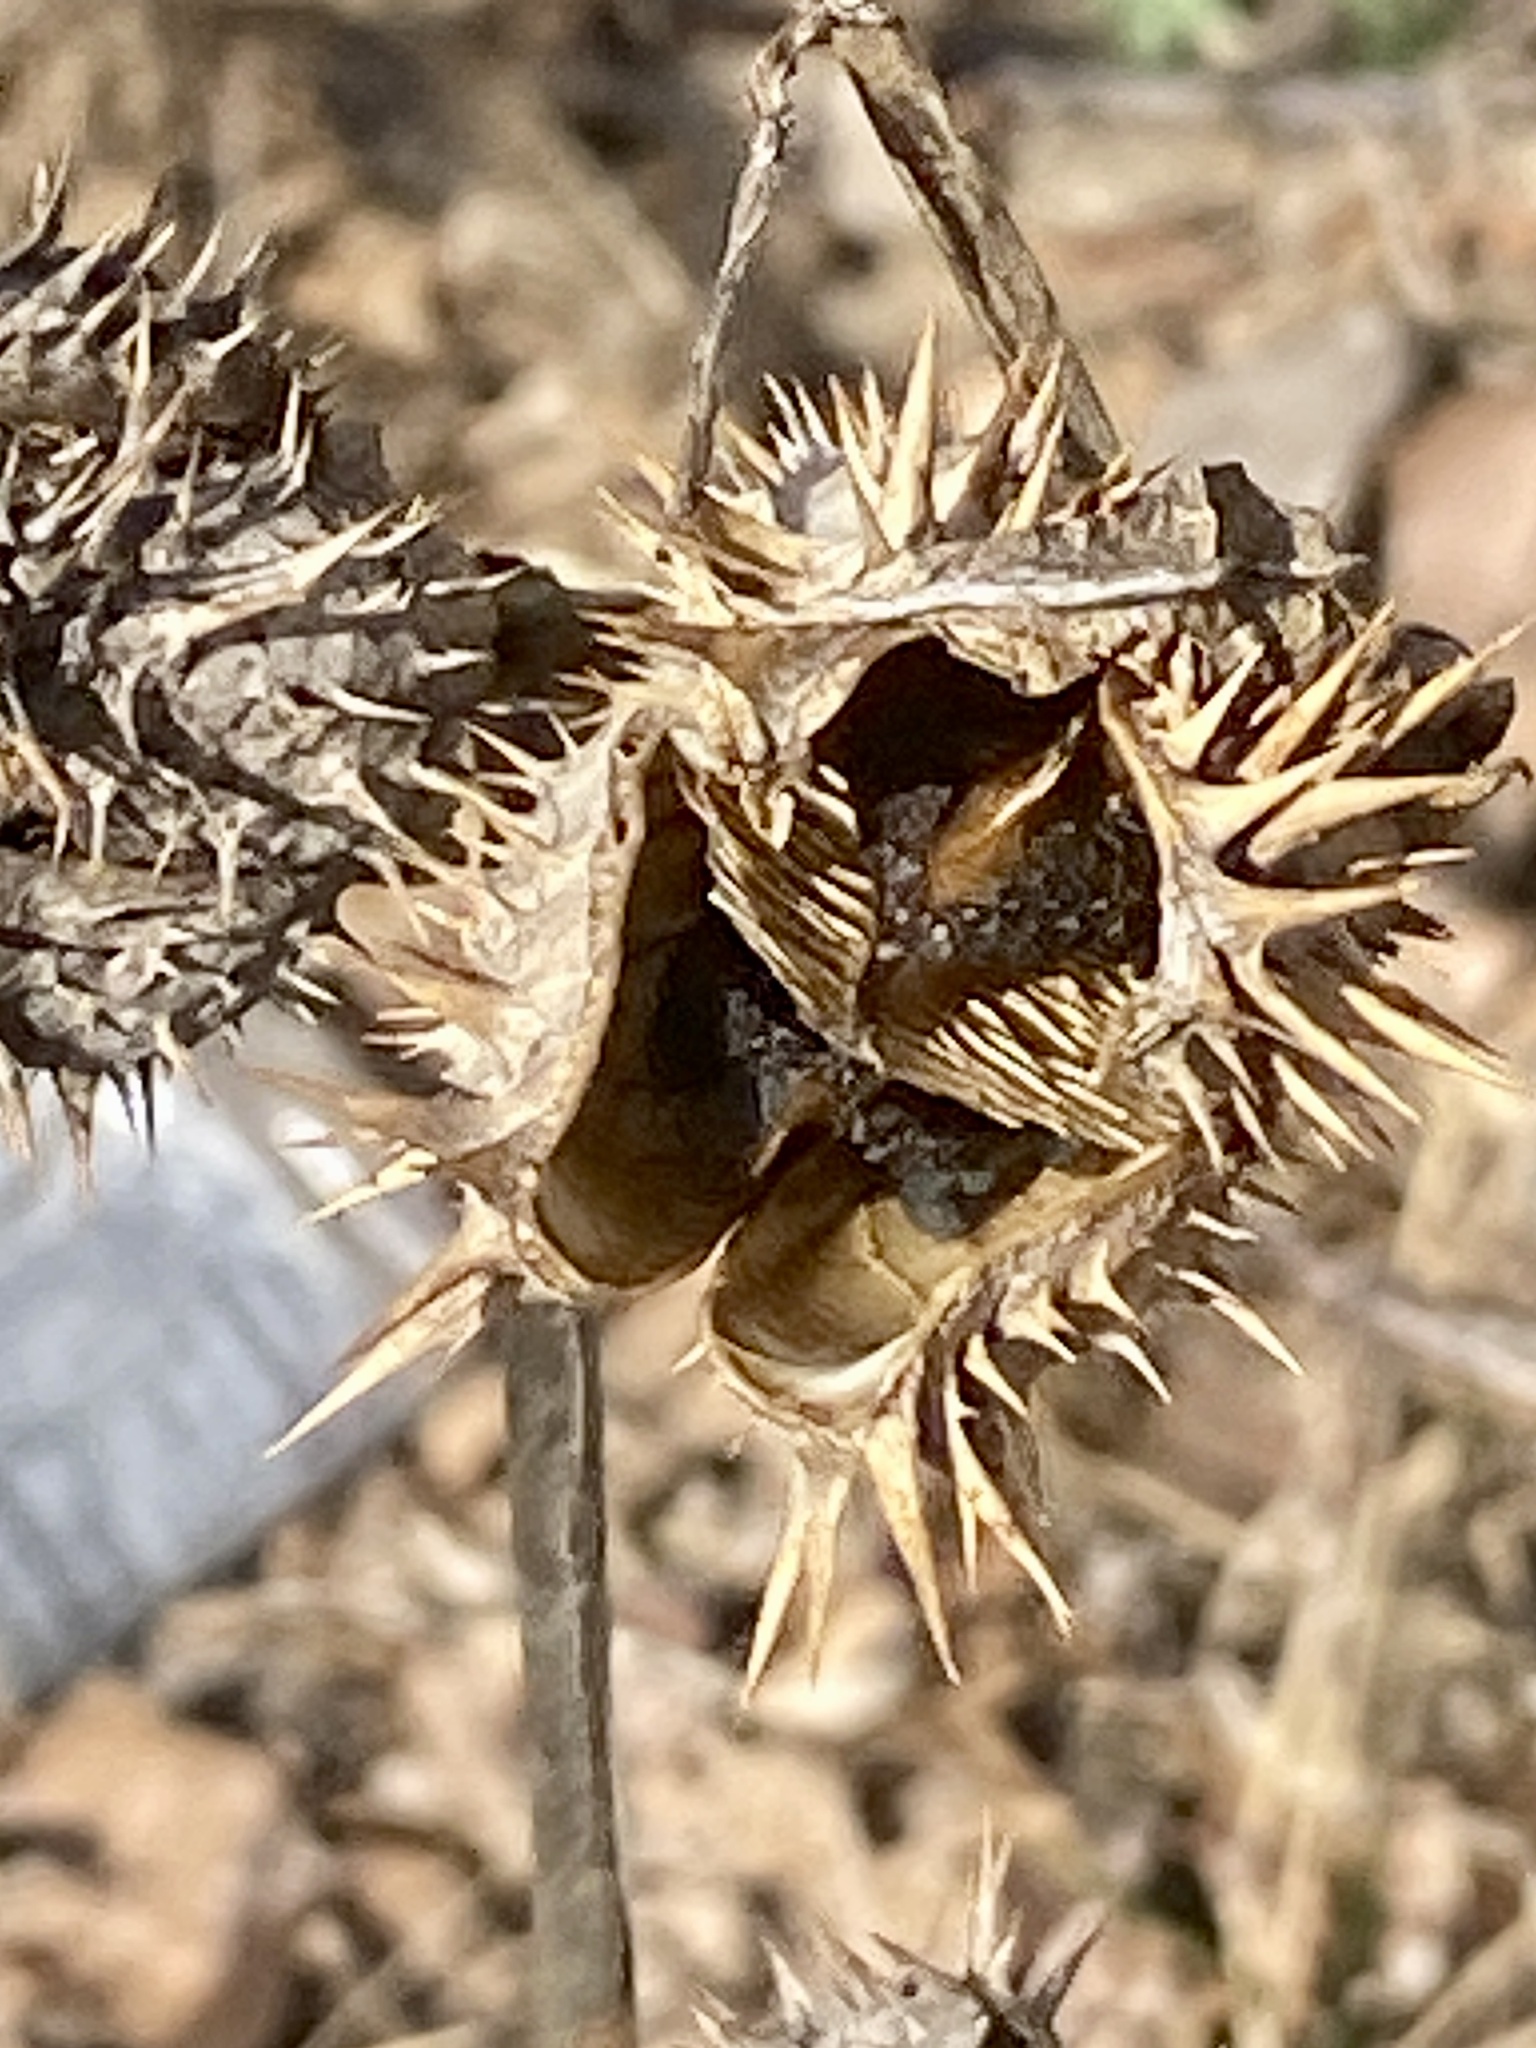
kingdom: Plantae
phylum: Tracheophyta
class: Magnoliopsida
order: Solanales
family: Solanaceae
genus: Datura
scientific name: Datura stramonium
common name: Thorn-apple
